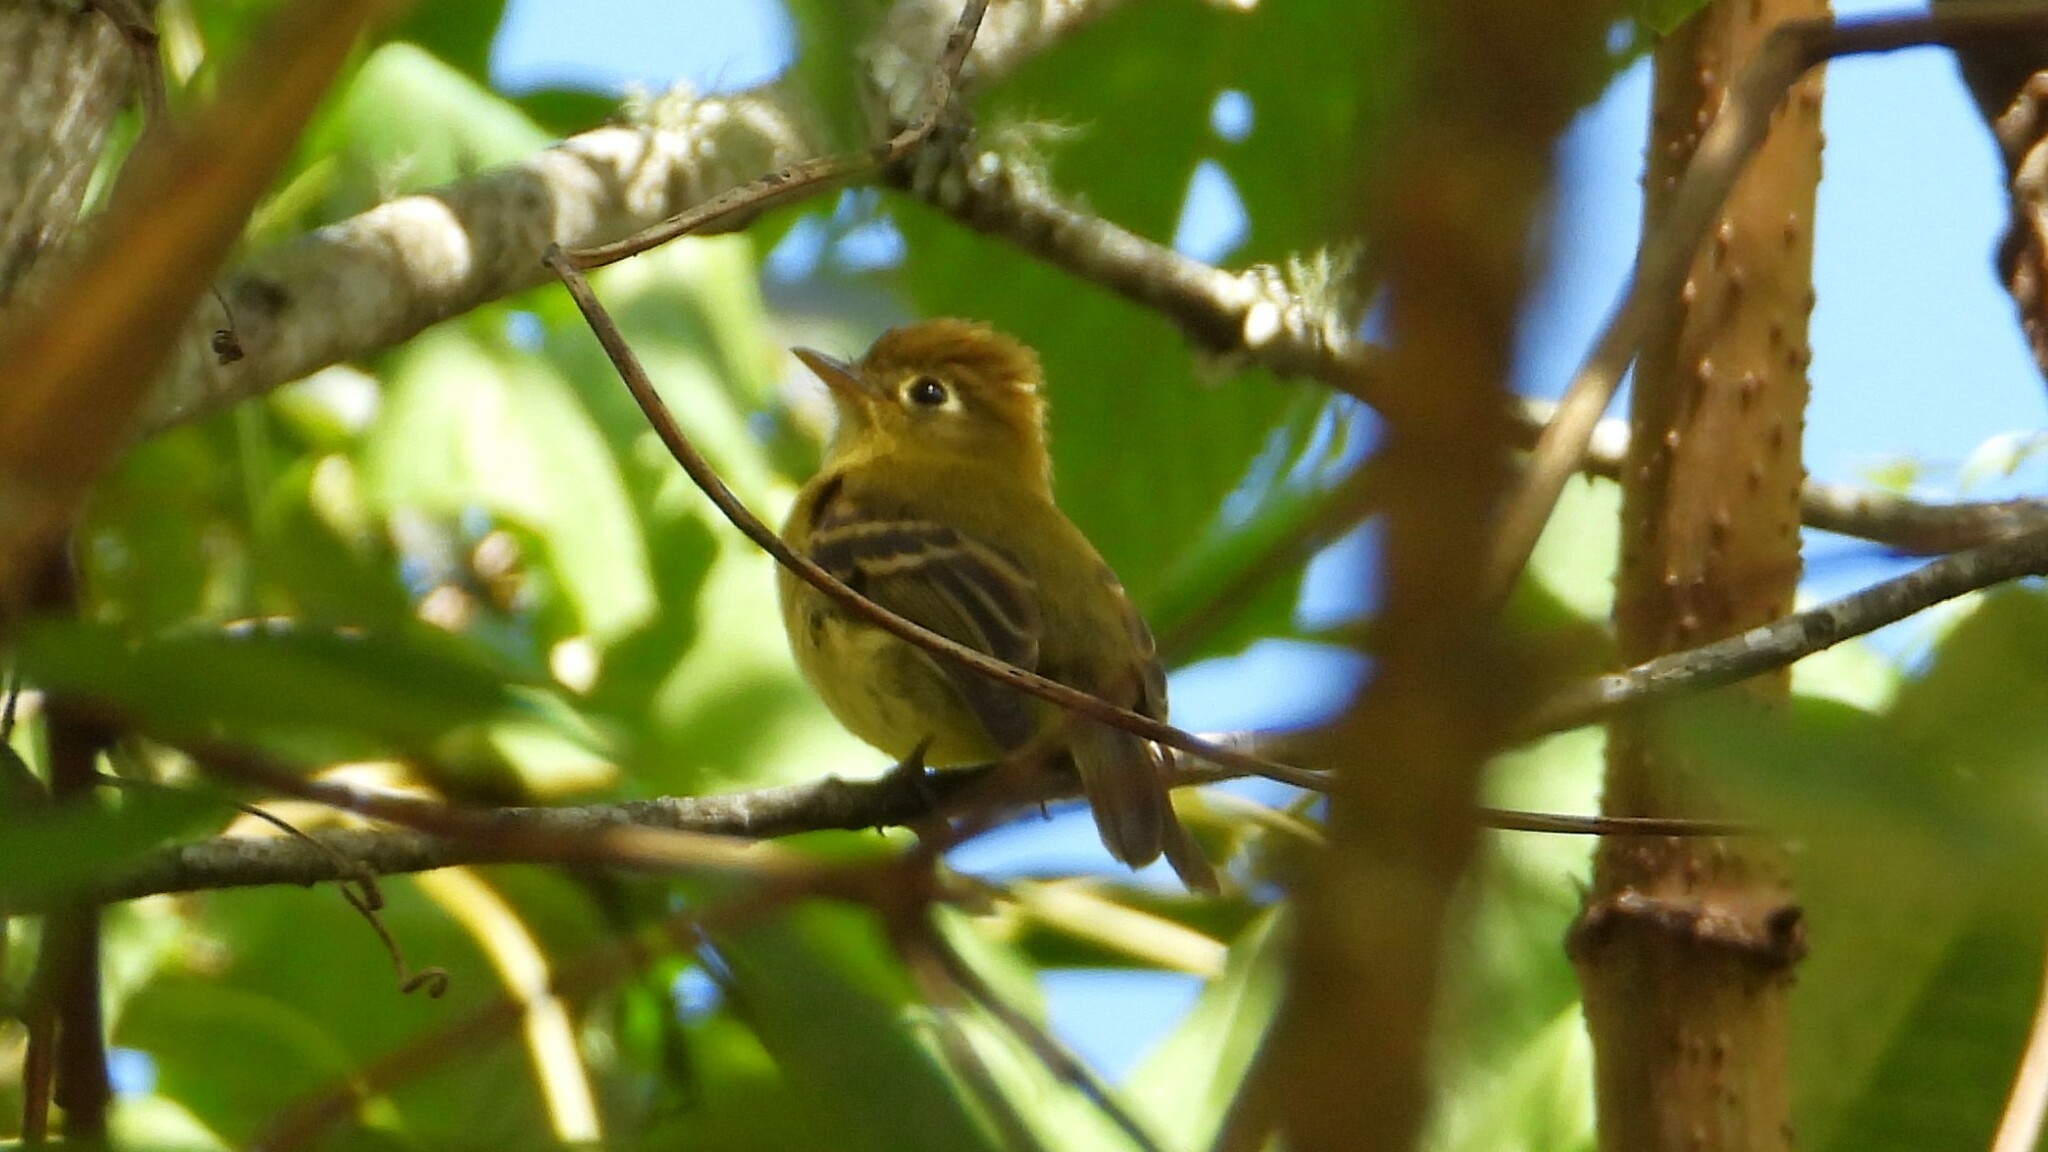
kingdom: Animalia
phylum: Chordata
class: Aves
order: Passeriformes
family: Tyrannidae
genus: Empidonax
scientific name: Empidonax flavescens
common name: Yellowish flycatcher
